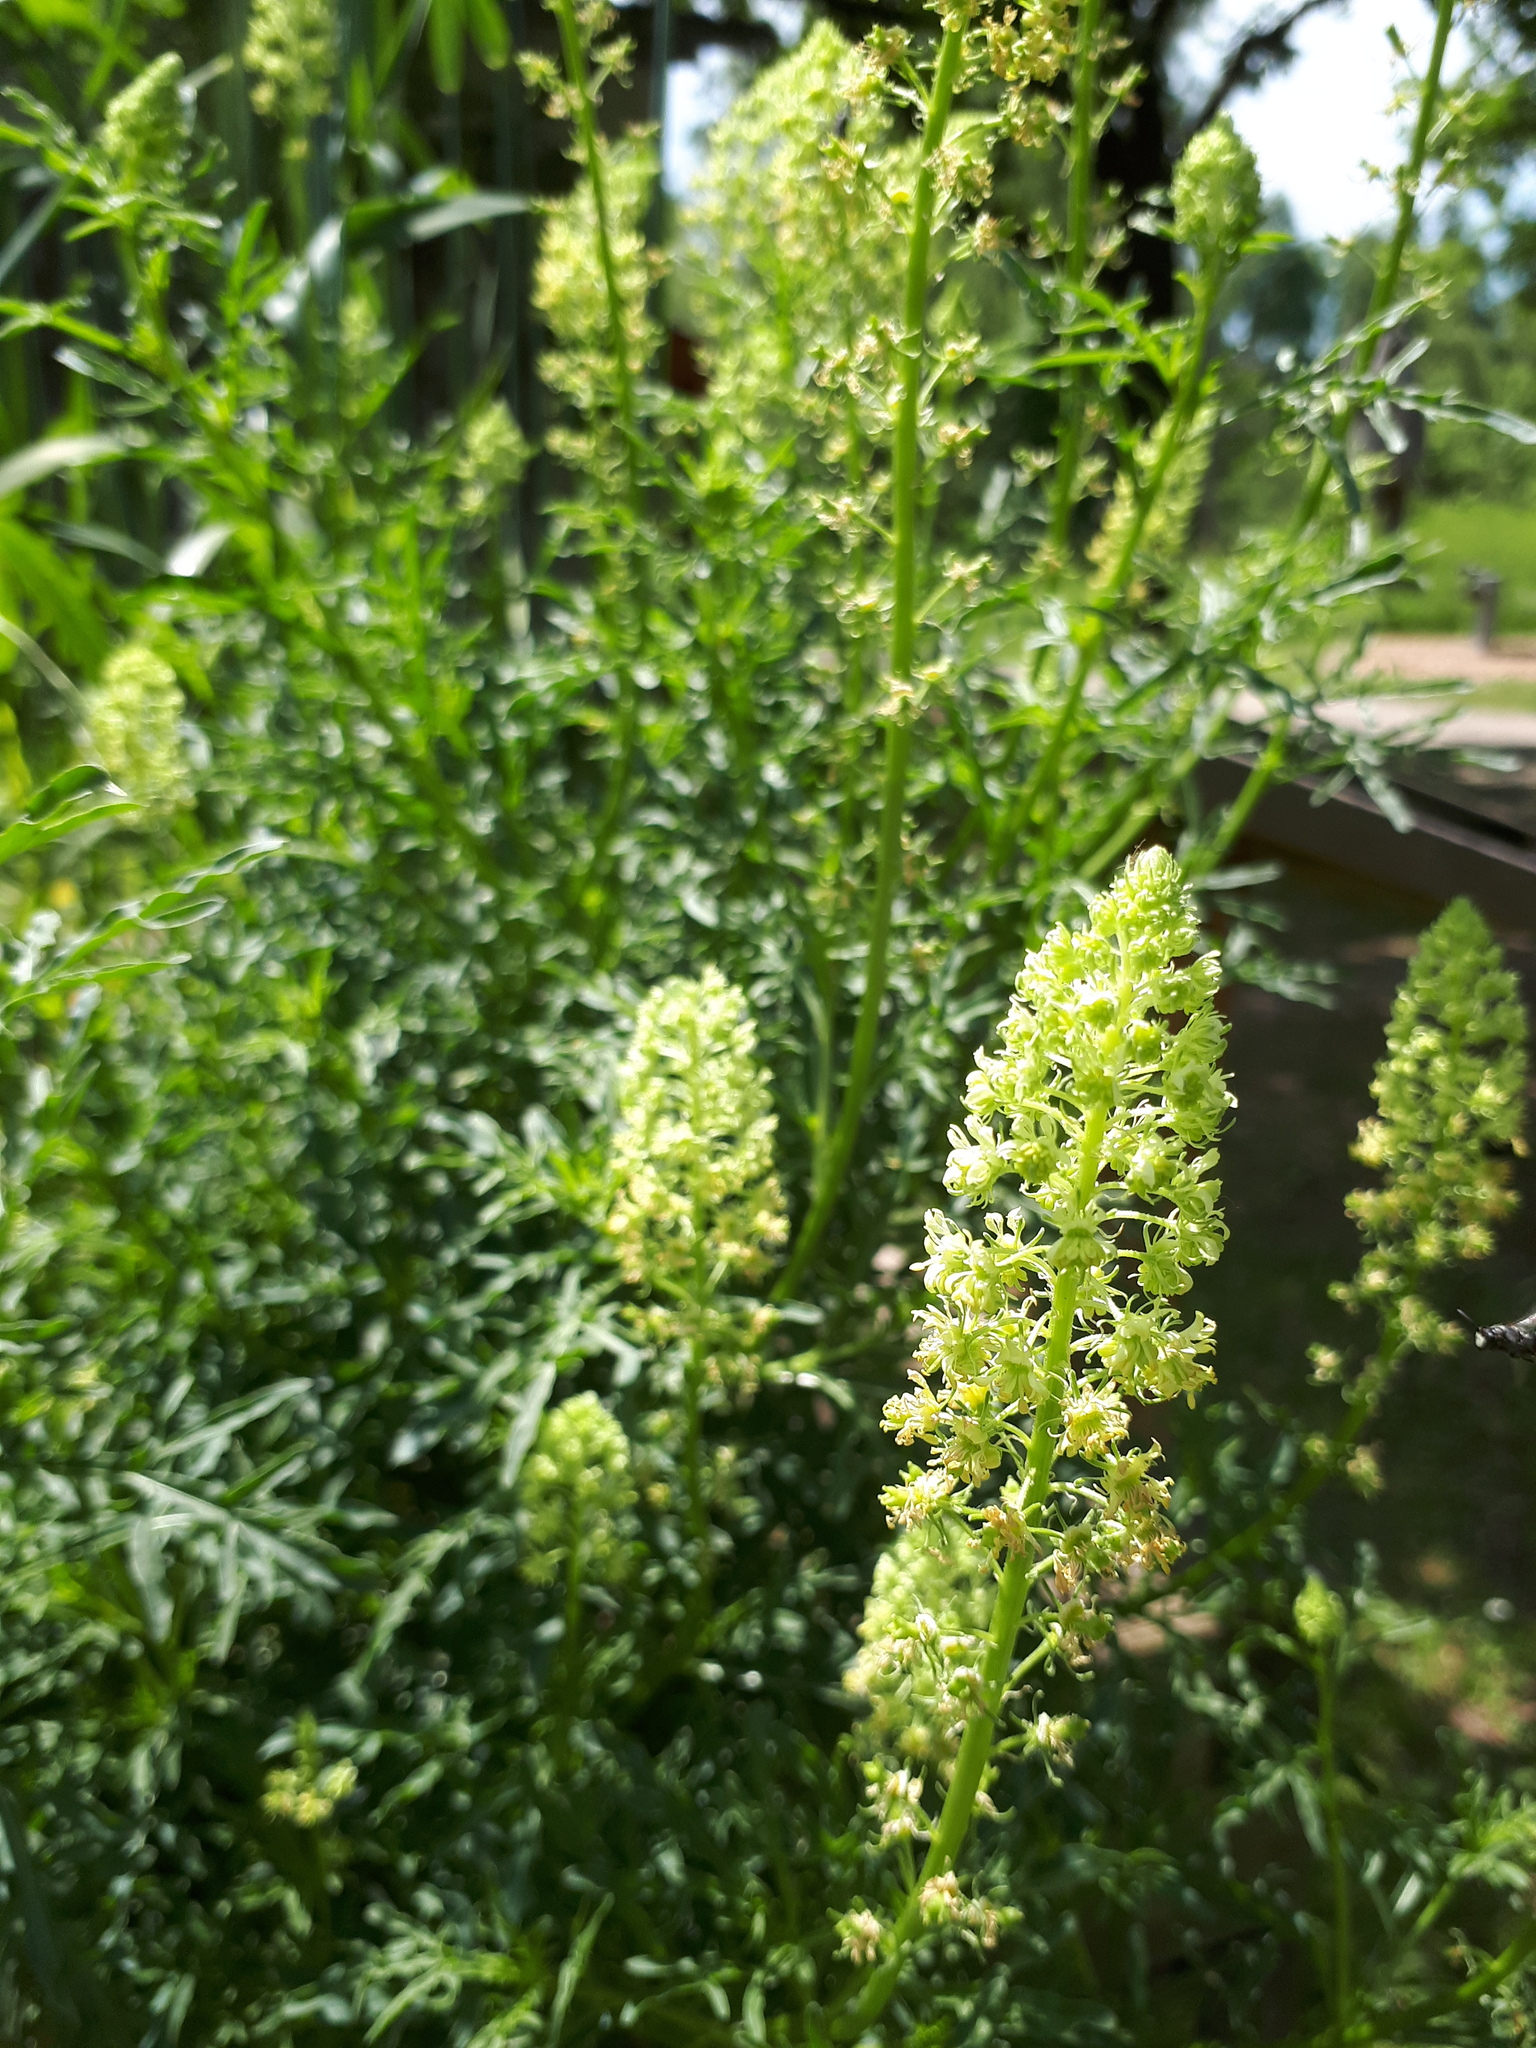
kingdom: Plantae
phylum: Tracheophyta
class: Magnoliopsida
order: Brassicales
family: Resedaceae
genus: Reseda
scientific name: Reseda lutea
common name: Wild mignonette
